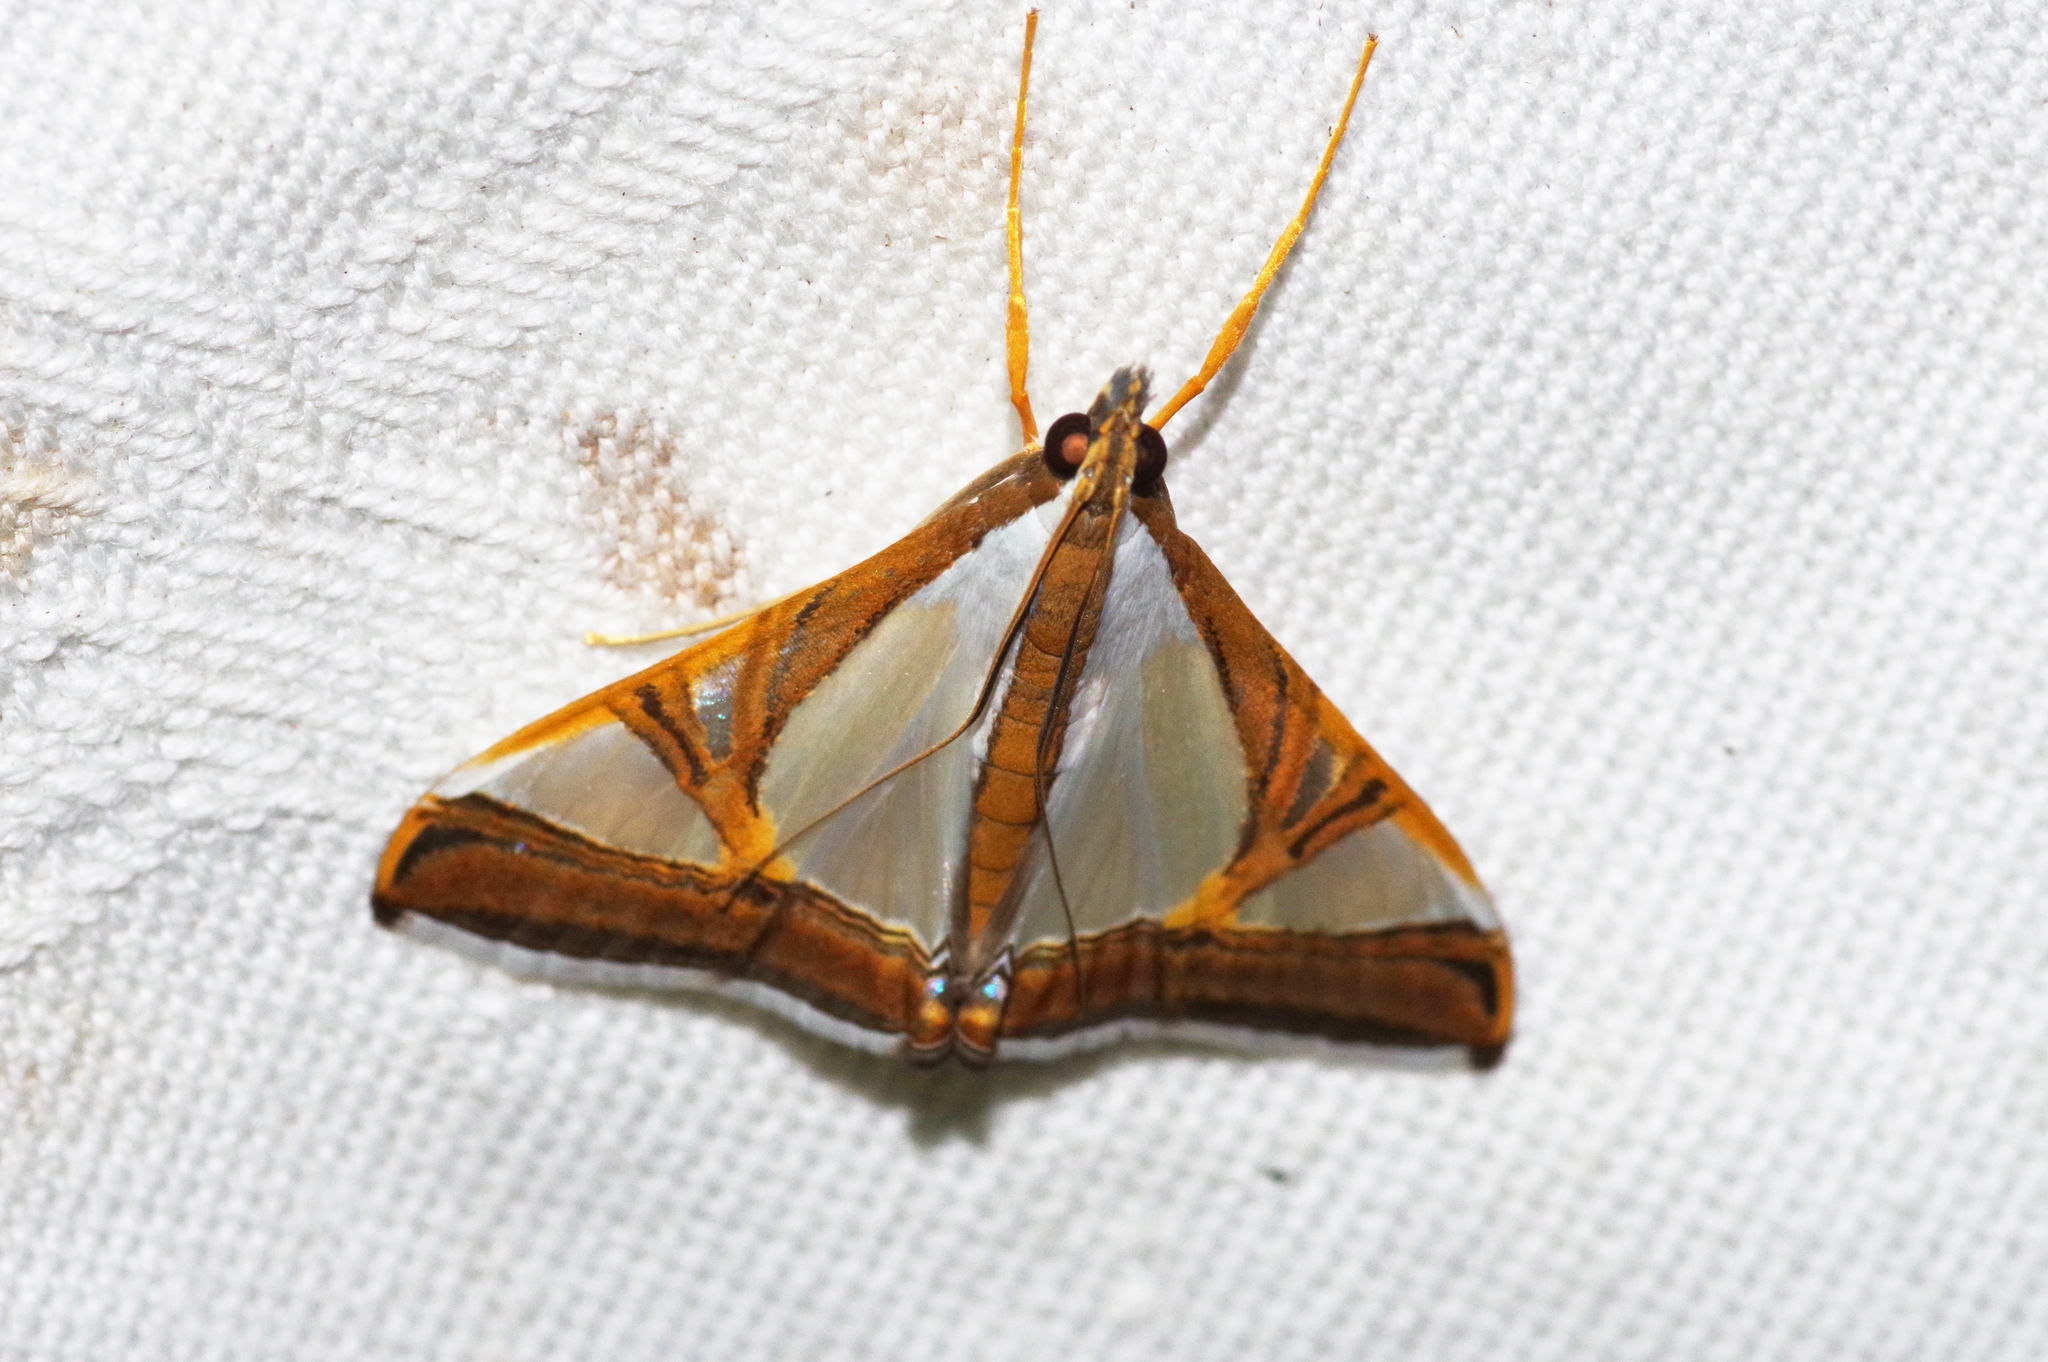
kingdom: Animalia
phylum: Arthropoda
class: Insecta
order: Lepidoptera
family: Crambidae
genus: Agrioglypta
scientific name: Agrioglypta eurytusalis
